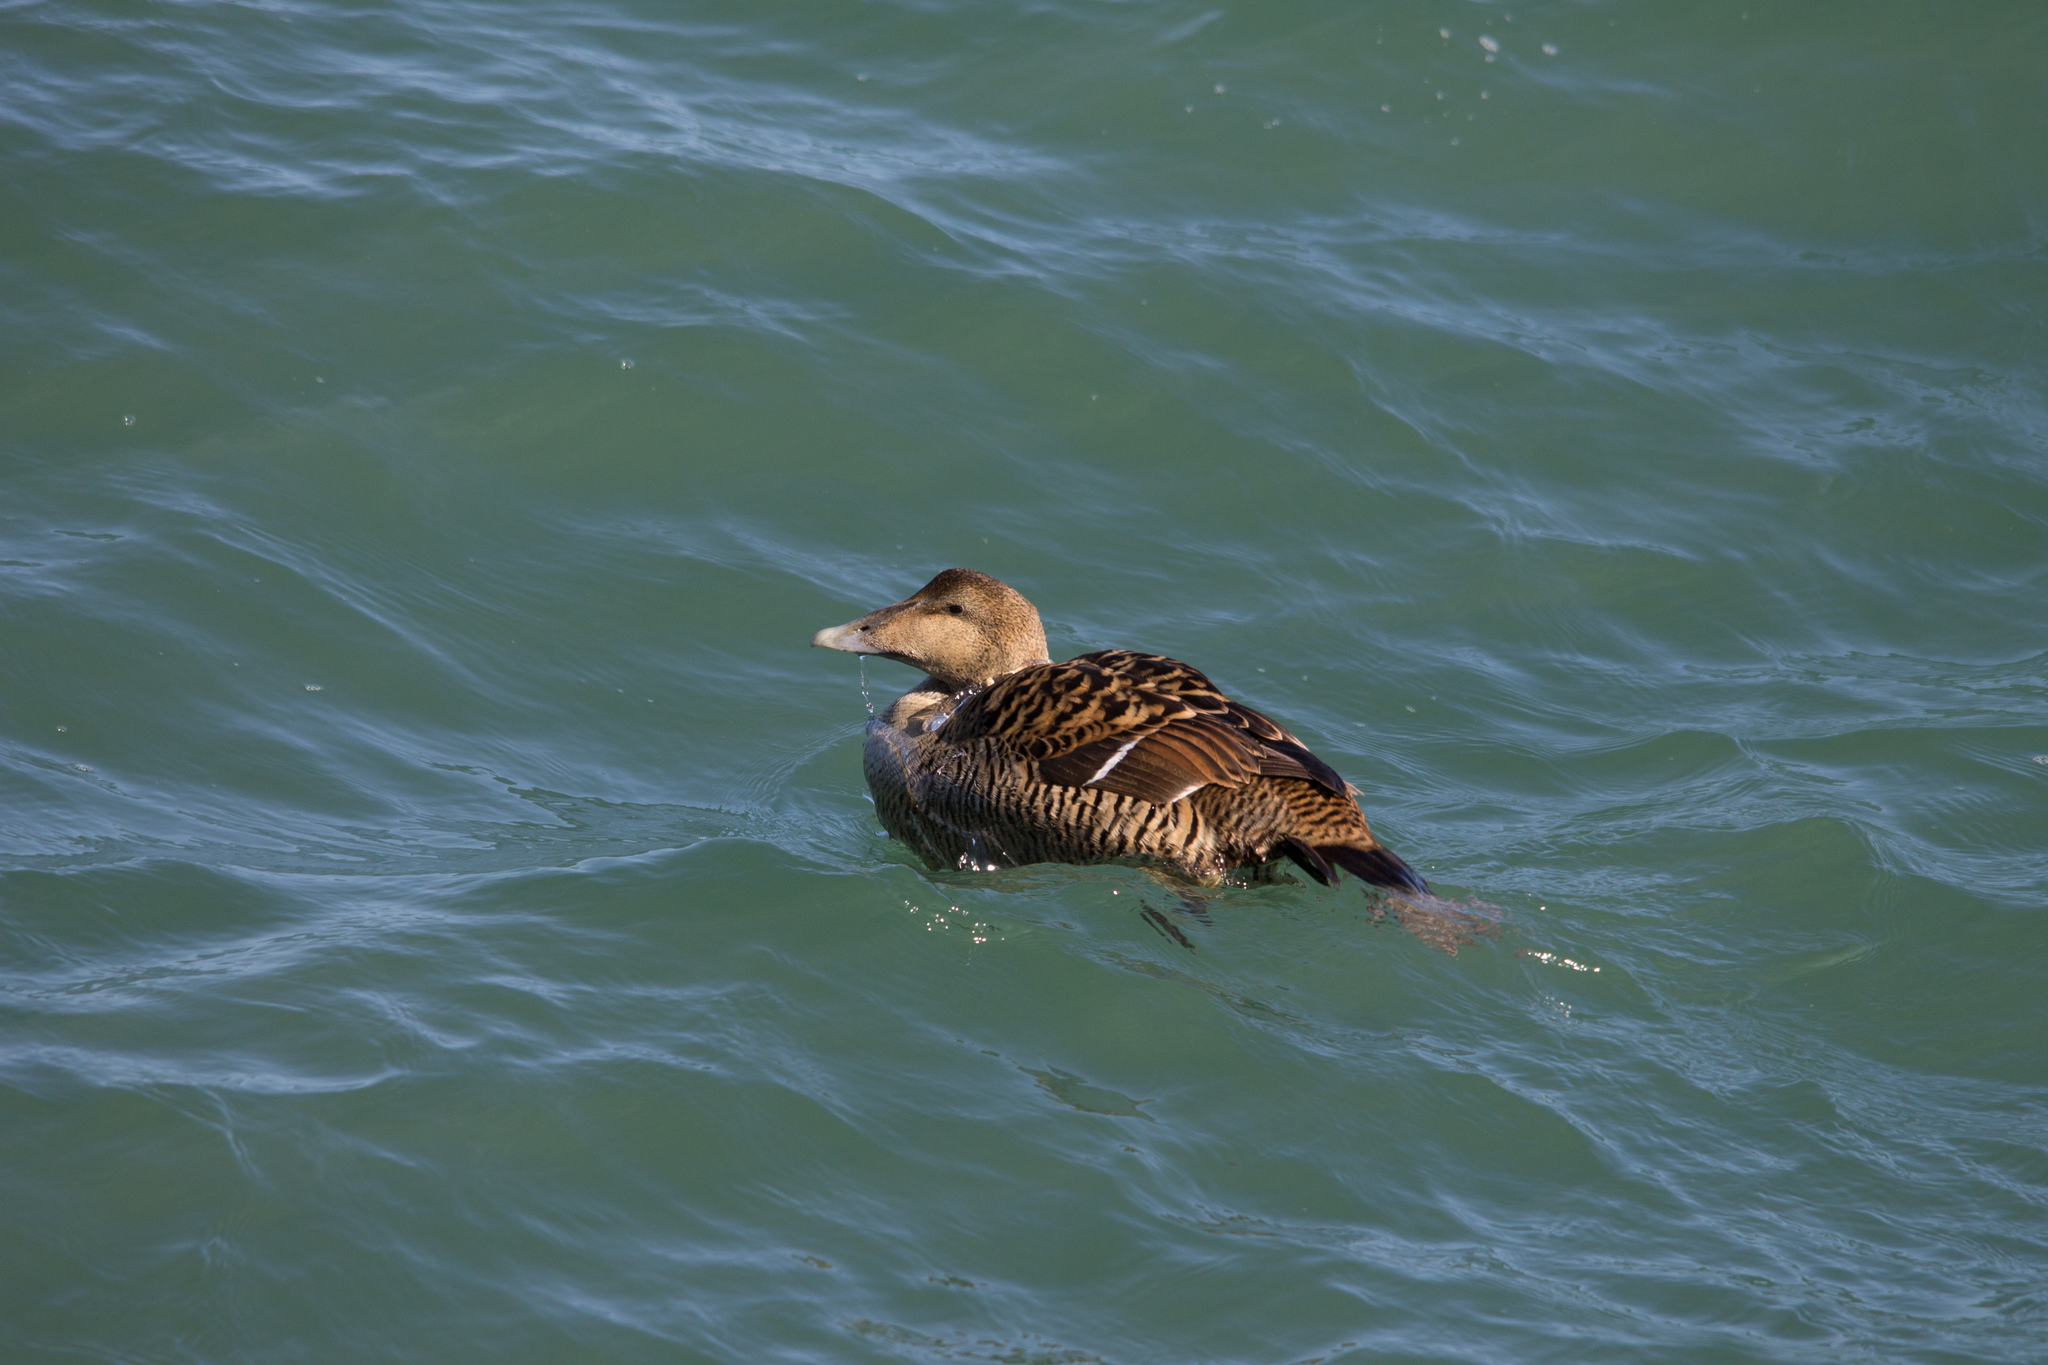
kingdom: Animalia
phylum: Chordata
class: Aves
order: Anseriformes
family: Anatidae
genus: Somateria
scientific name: Somateria mollissima
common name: Common eider
